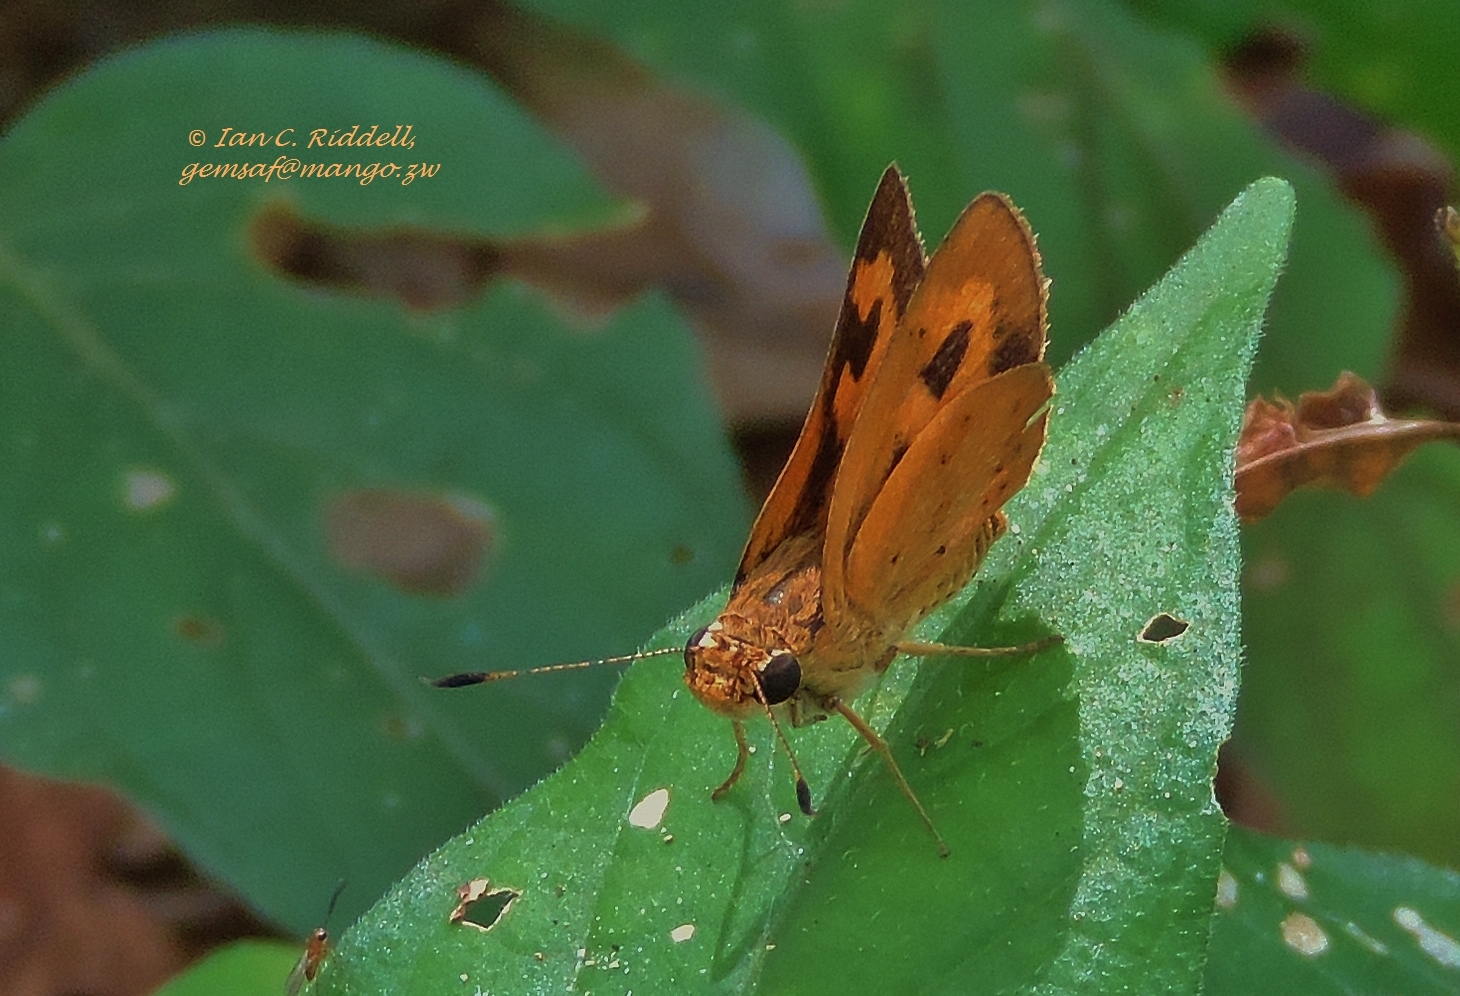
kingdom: Animalia
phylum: Arthropoda
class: Insecta
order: Lepidoptera
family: Hesperiidae
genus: Acada
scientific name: Acada biseriatus
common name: Axehead orange
